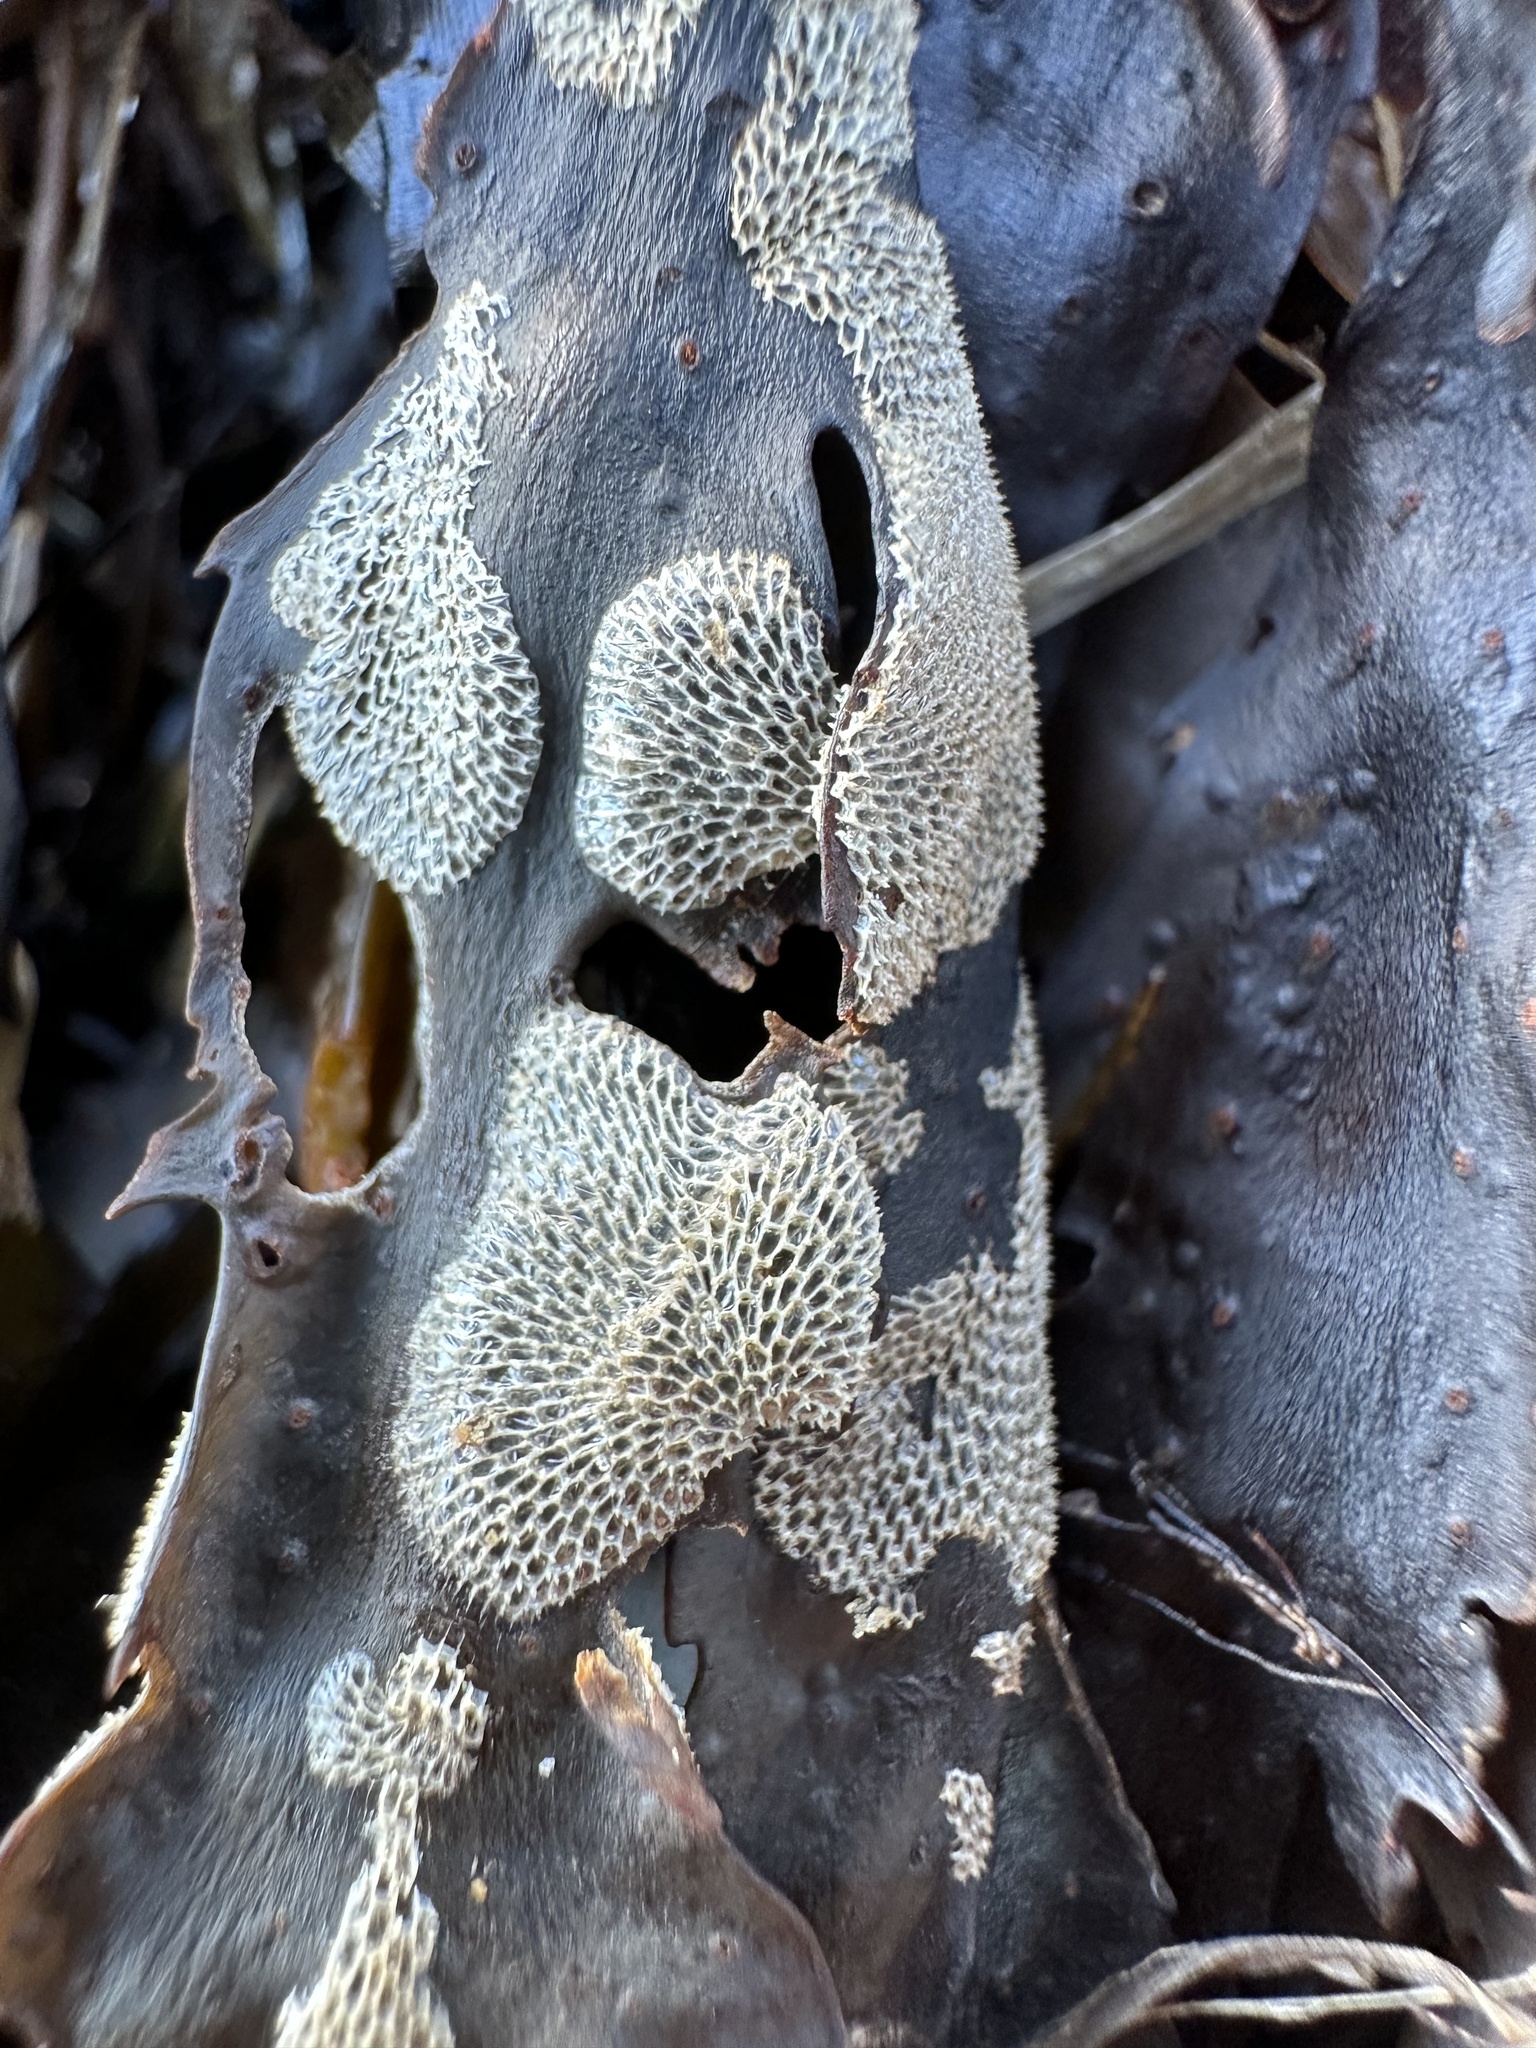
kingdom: Animalia
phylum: Bryozoa
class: Gymnolaemata
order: Cheilostomatida
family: Membraniporidae
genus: Membranipora
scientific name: Membranipora membranacea
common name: Sea mat
